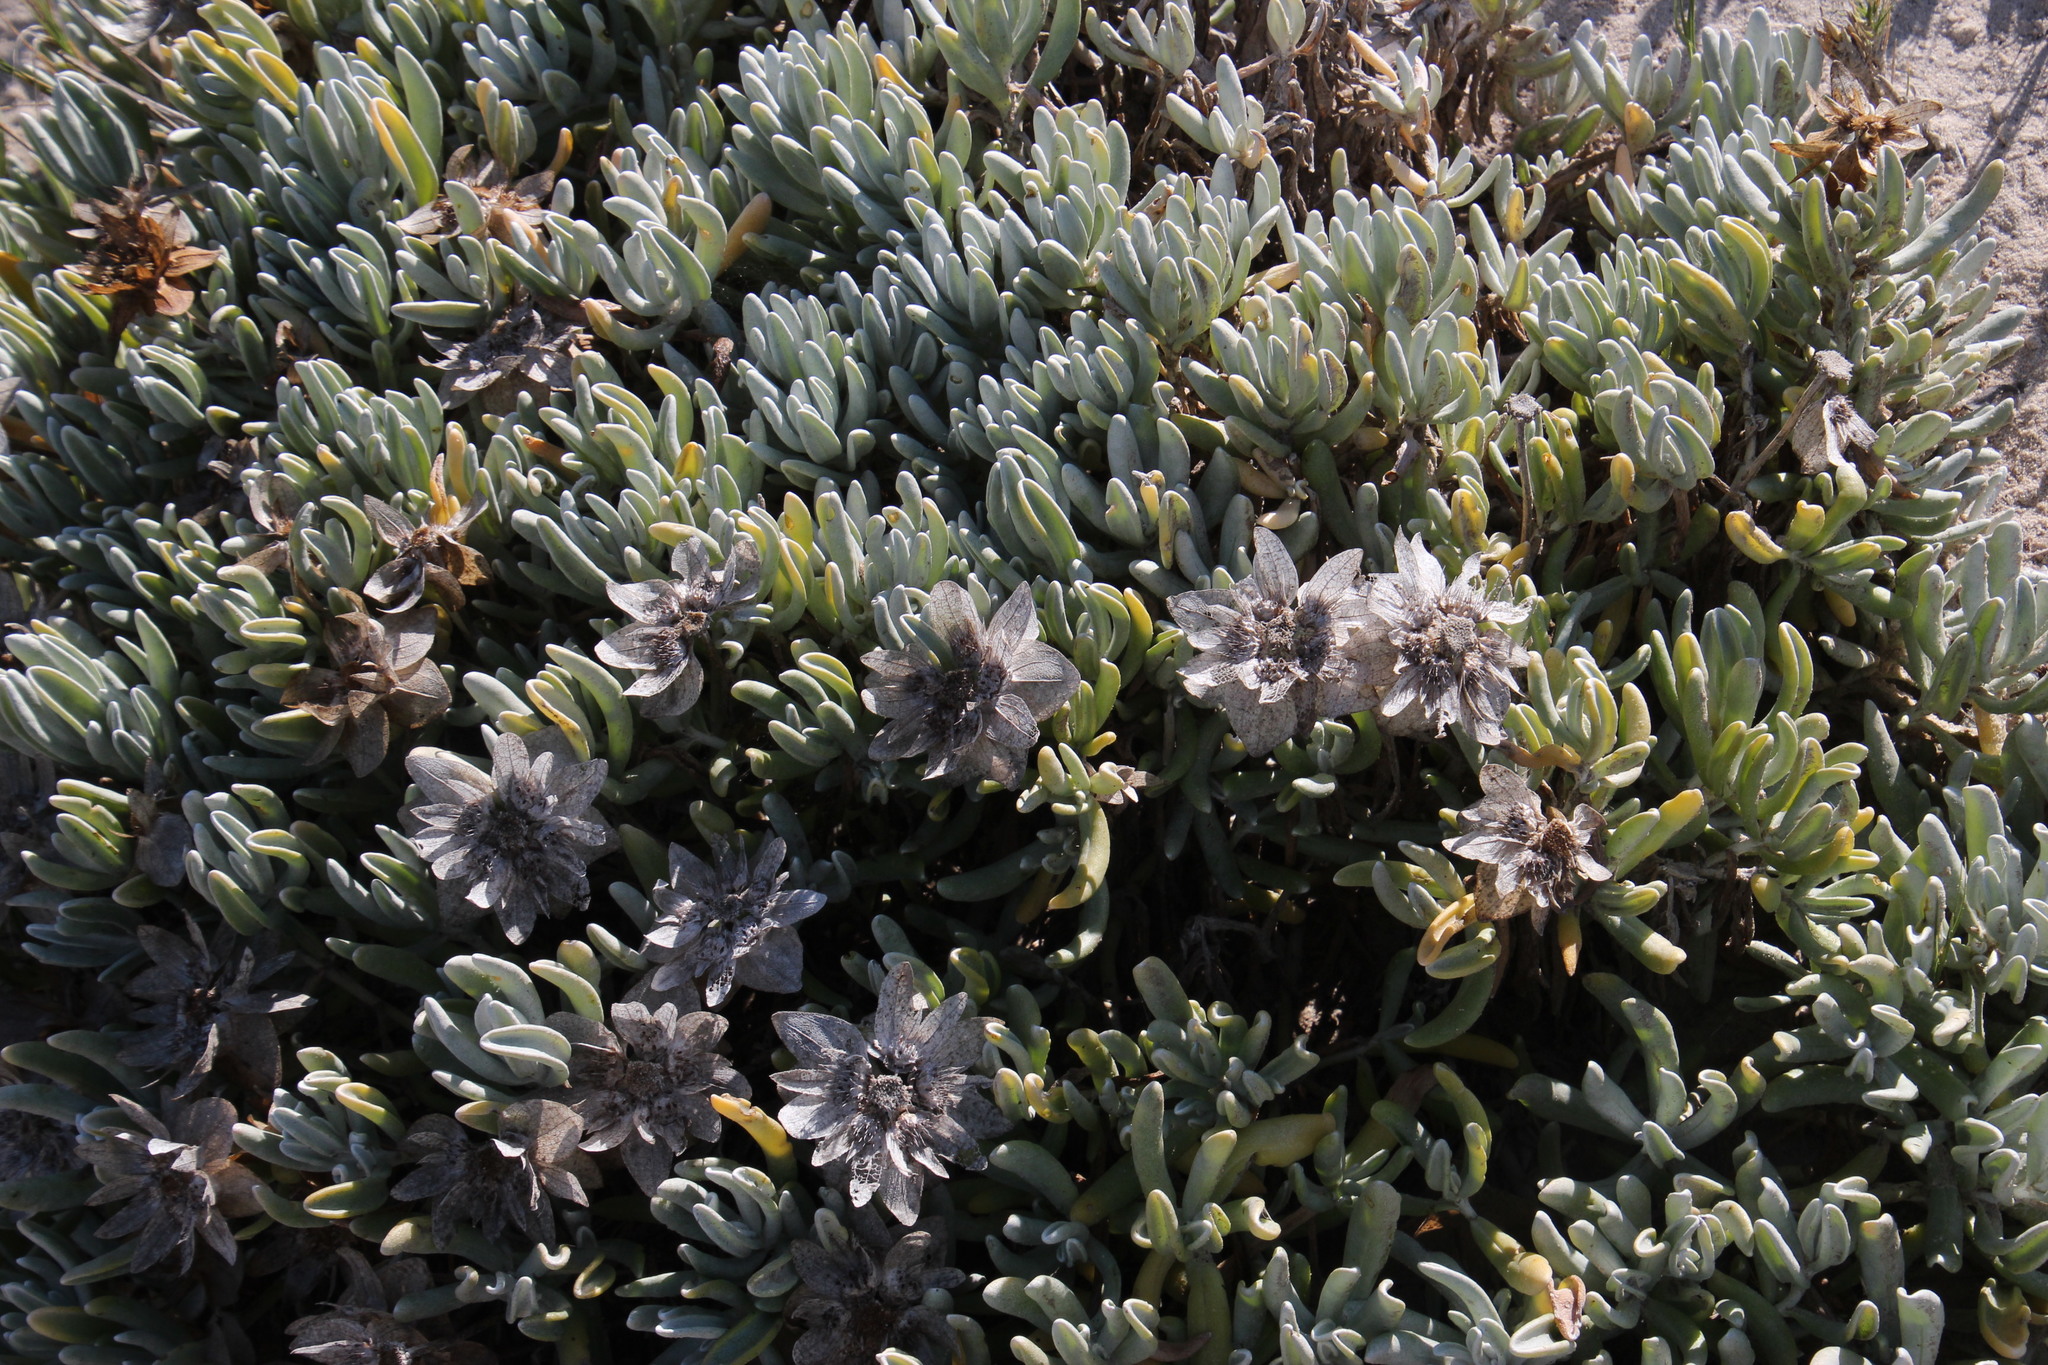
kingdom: Plantae
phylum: Tracheophyta
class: Magnoliopsida
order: Asterales
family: Asteraceae
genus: Didelta
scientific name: Didelta carnosa
